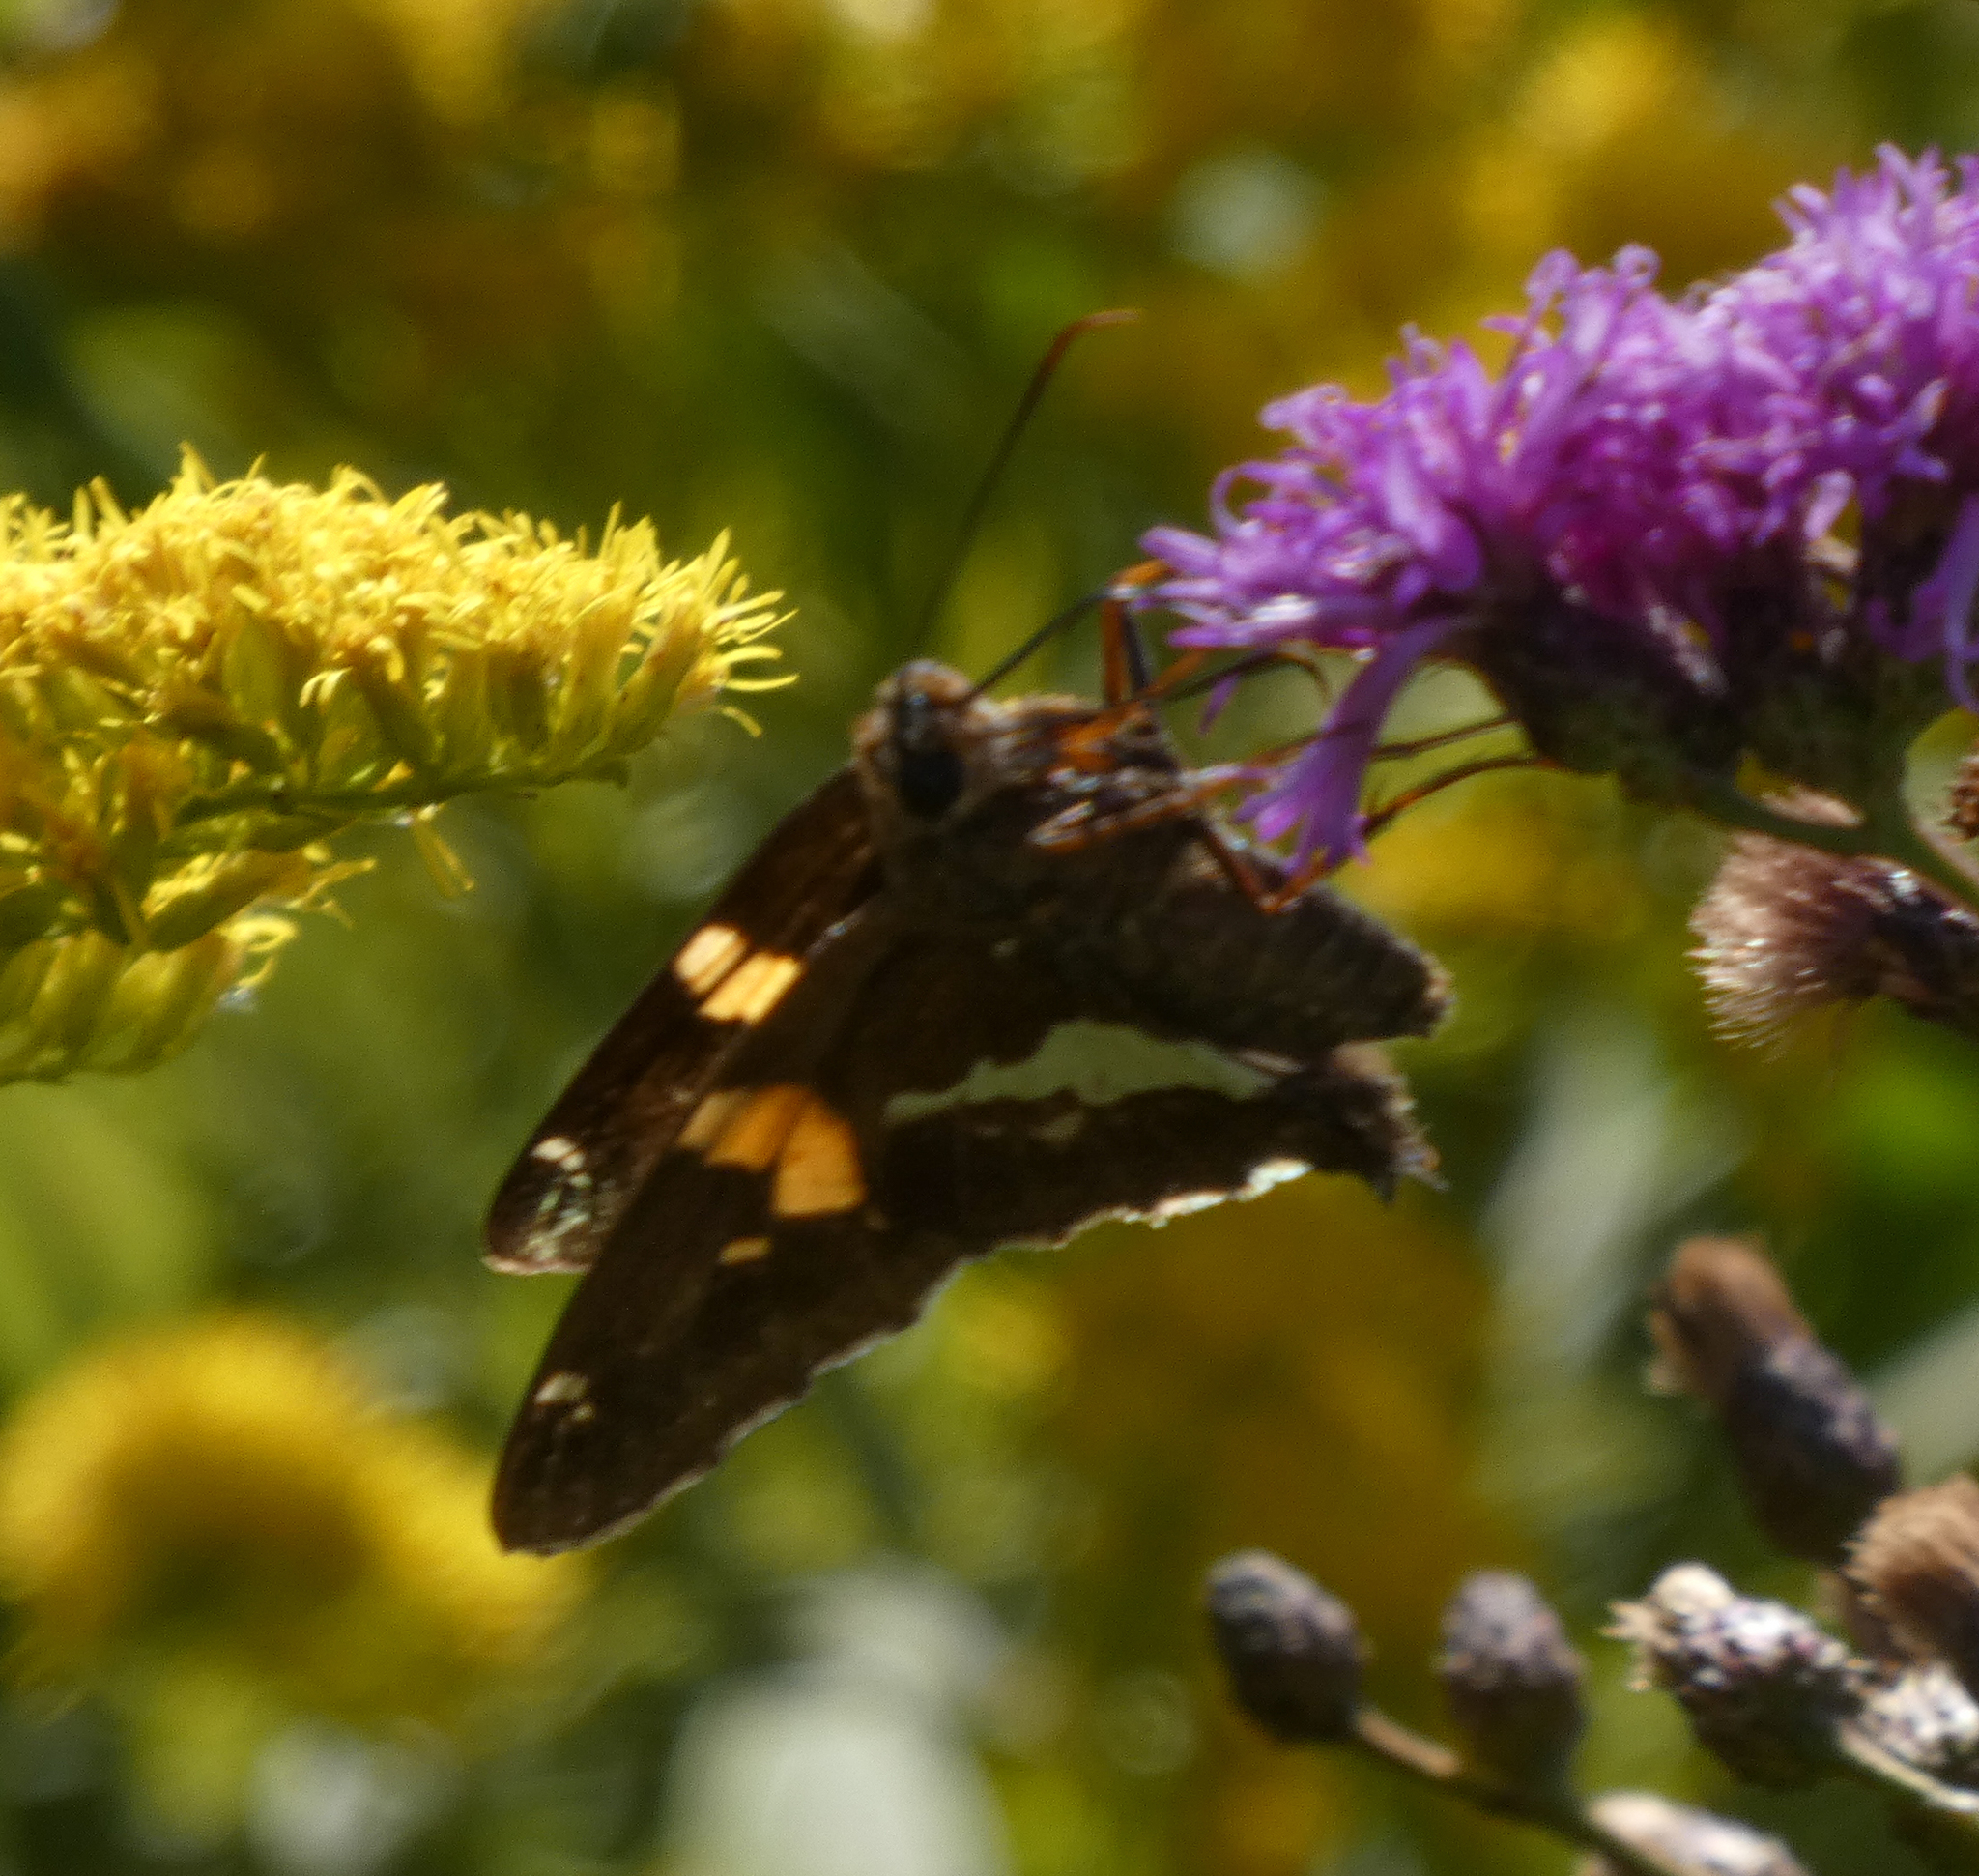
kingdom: Animalia
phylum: Arthropoda
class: Insecta
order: Lepidoptera
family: Hesperiidae
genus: Epargyreus
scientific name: Epargyreus clarus
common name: Silver-spotted skipper
